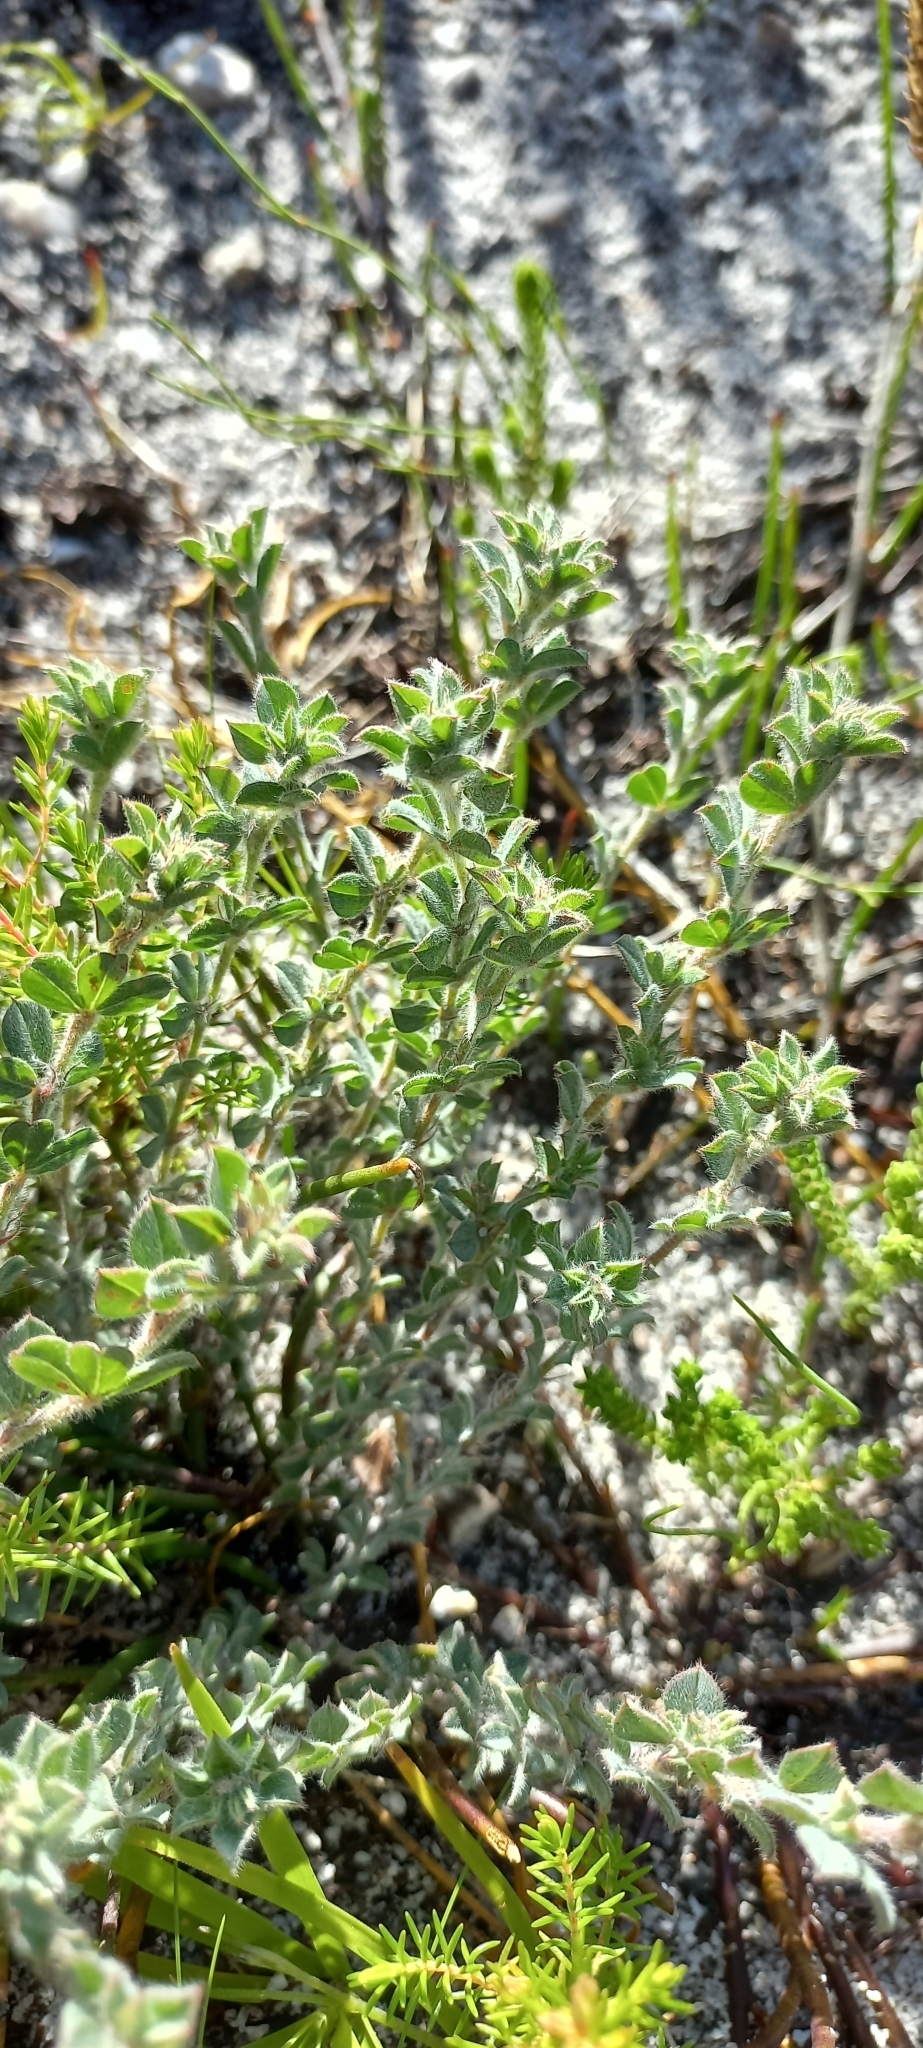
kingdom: Plantae
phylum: Tracheophyta
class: Magnoliopsida
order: Fabales
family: Fabaceae
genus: Indigofera
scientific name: Indigofera glomerata
